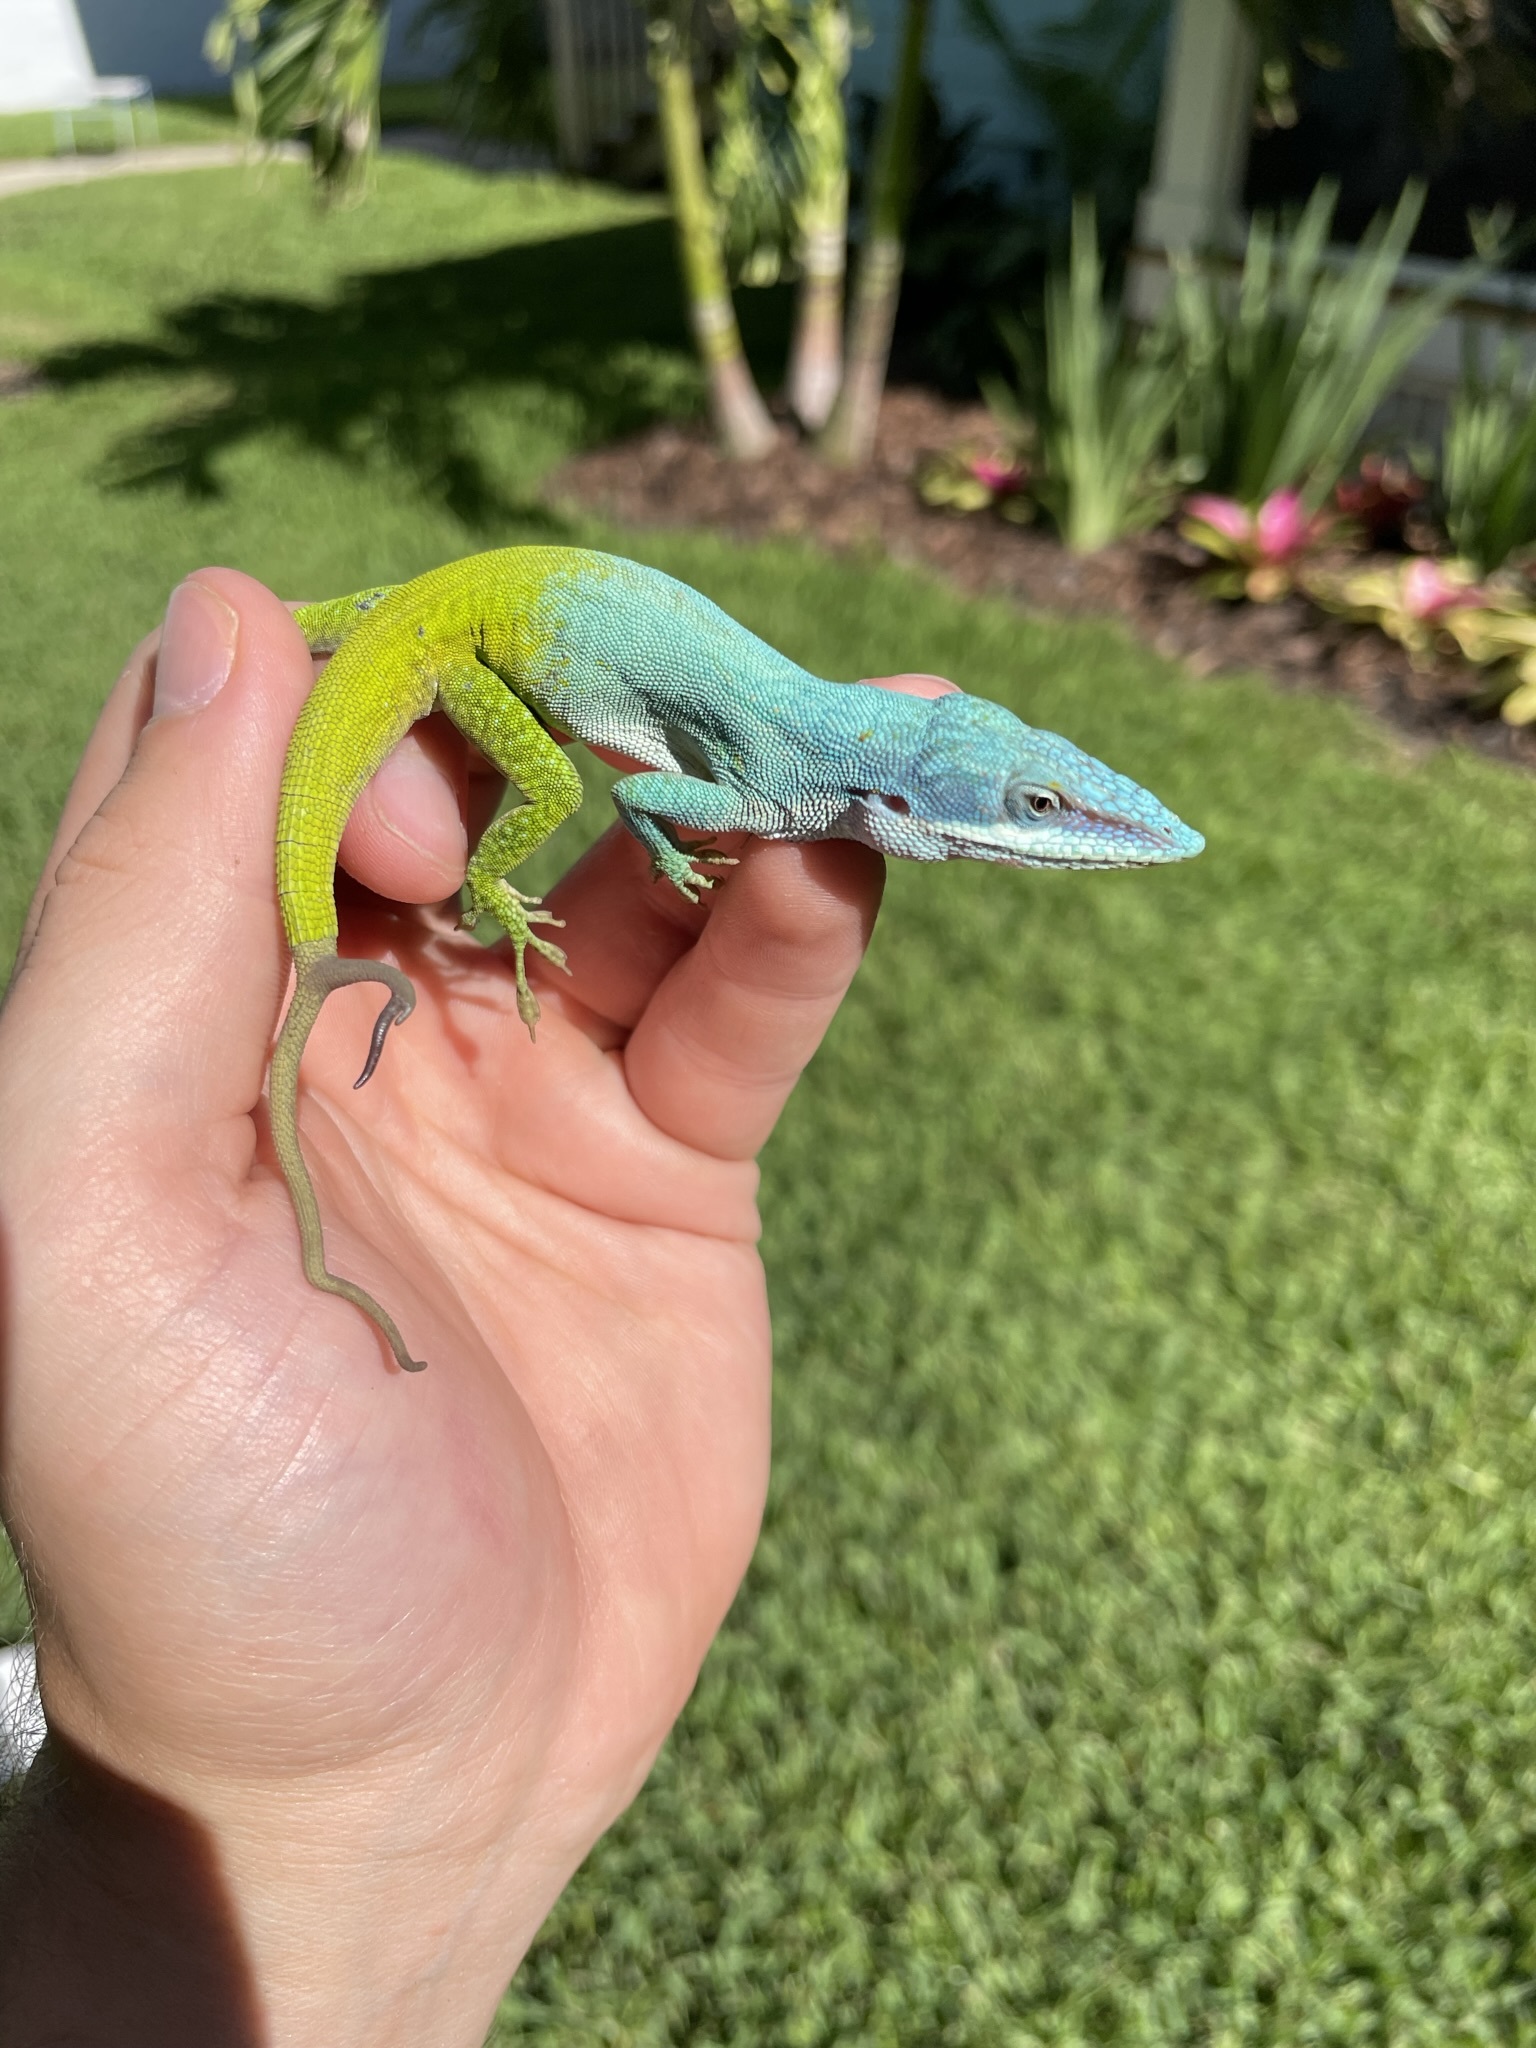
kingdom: Animalia
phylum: Chordata
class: Squamata
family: Dactyloidae
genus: Anolis
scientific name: Anolis allisoni
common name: Allison's anole
